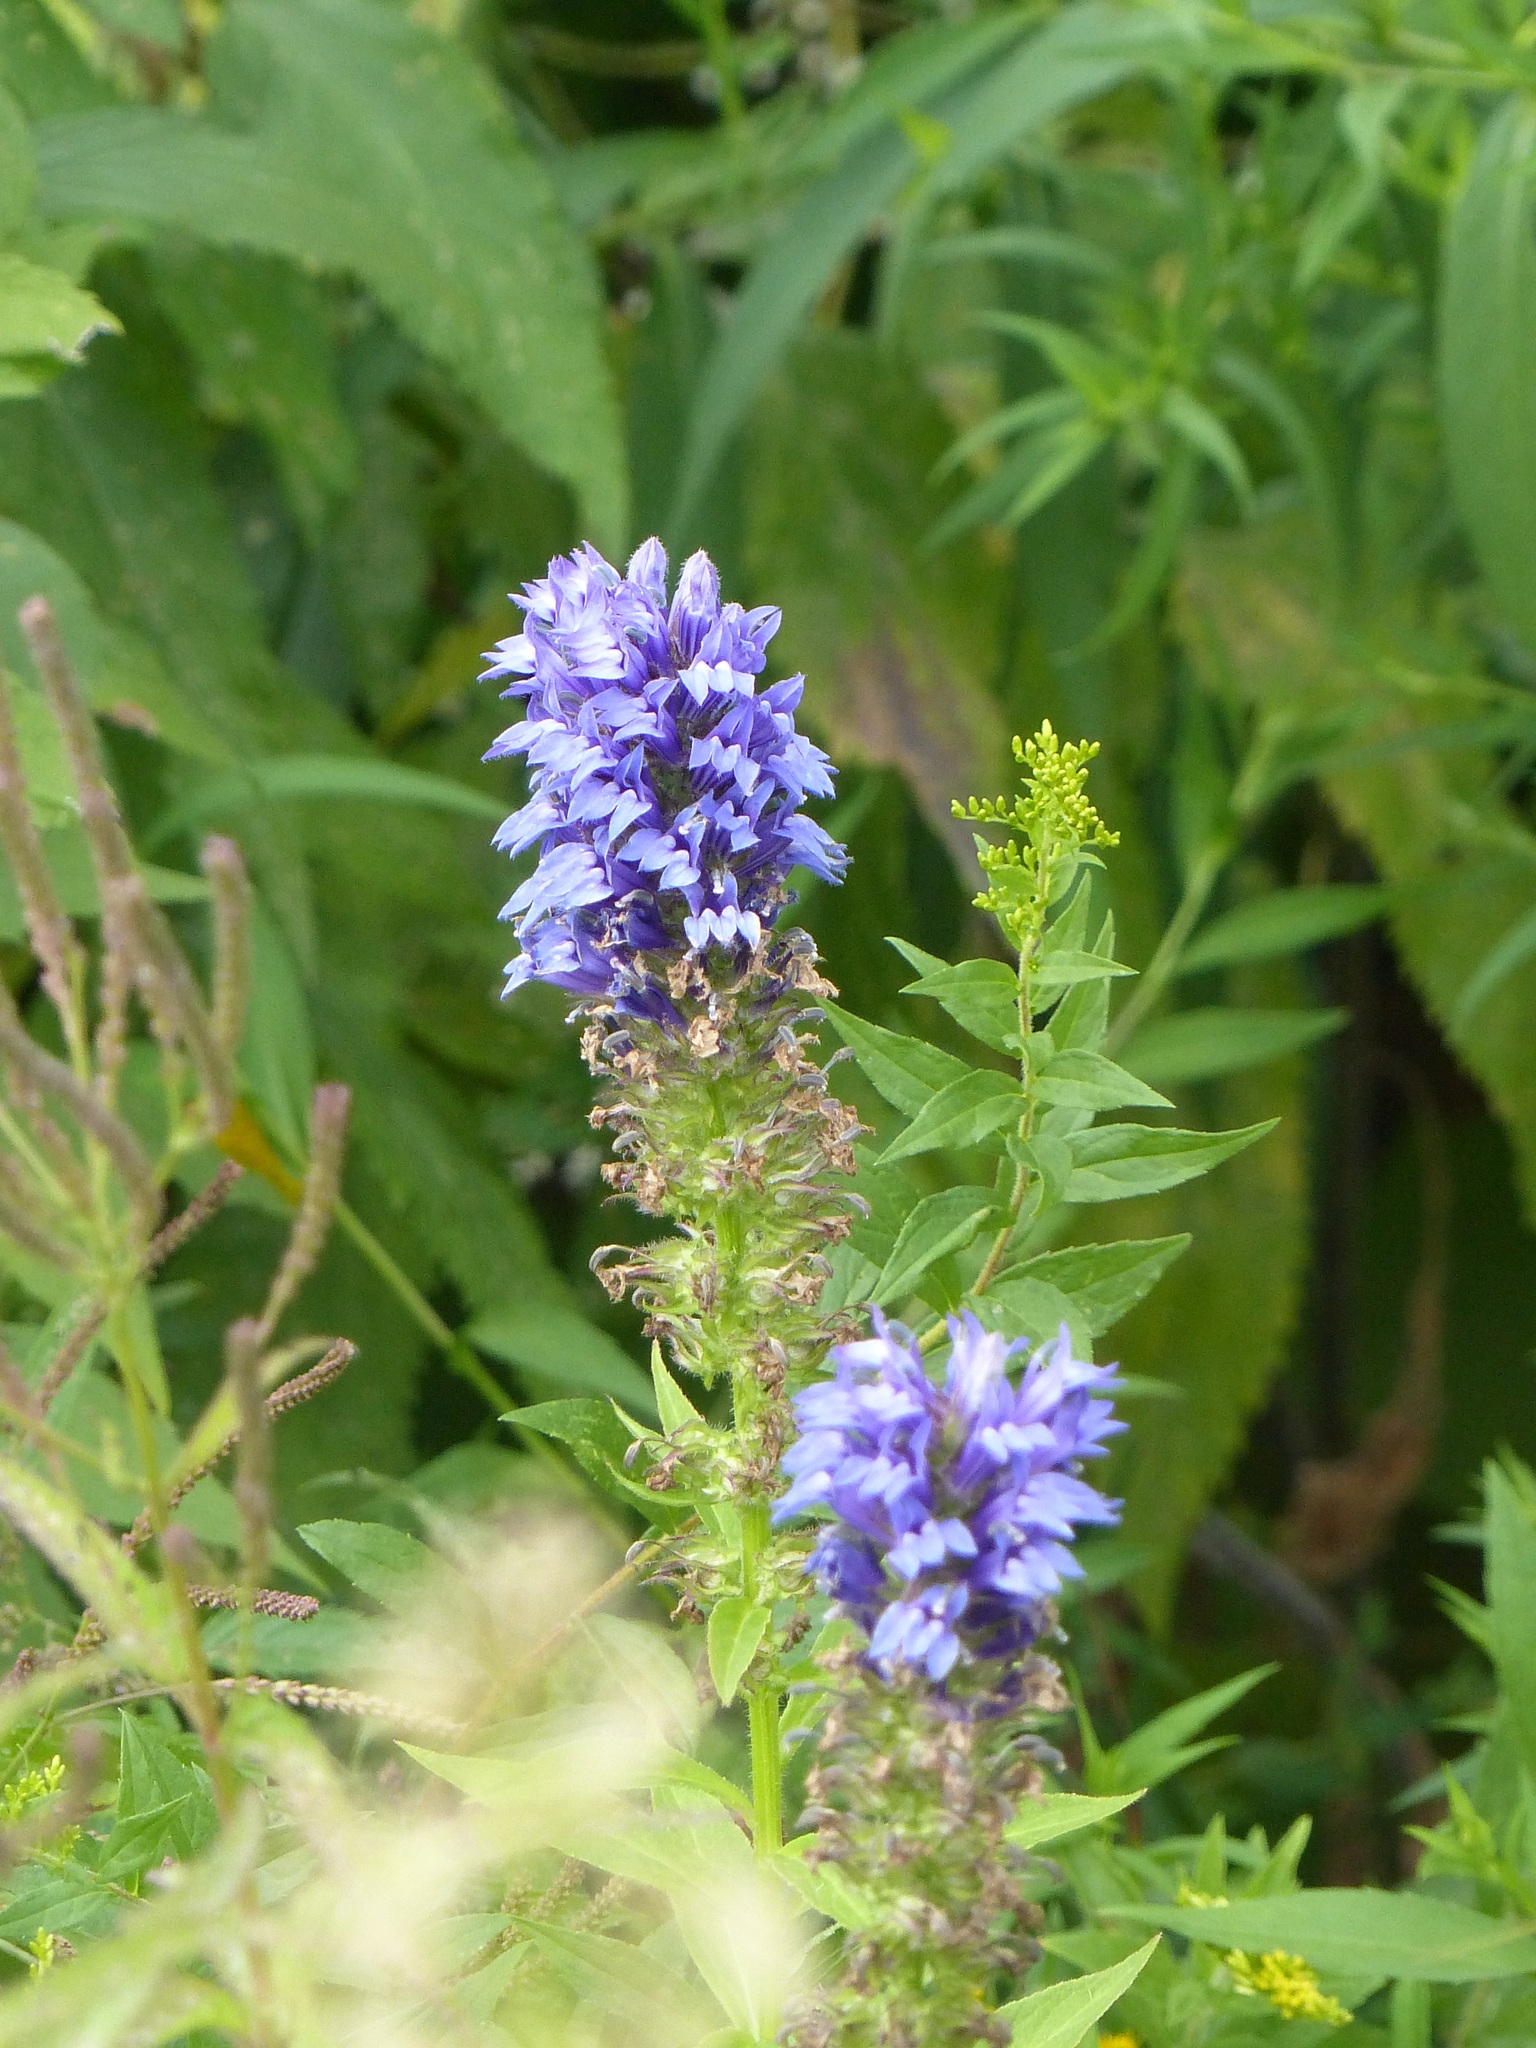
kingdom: Plantae
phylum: Tracheophyta
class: Magnoliopsida
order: Asterales
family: Campanulaceae
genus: Lobelia
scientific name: Lobelia siphilitica
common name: Great lobelia
